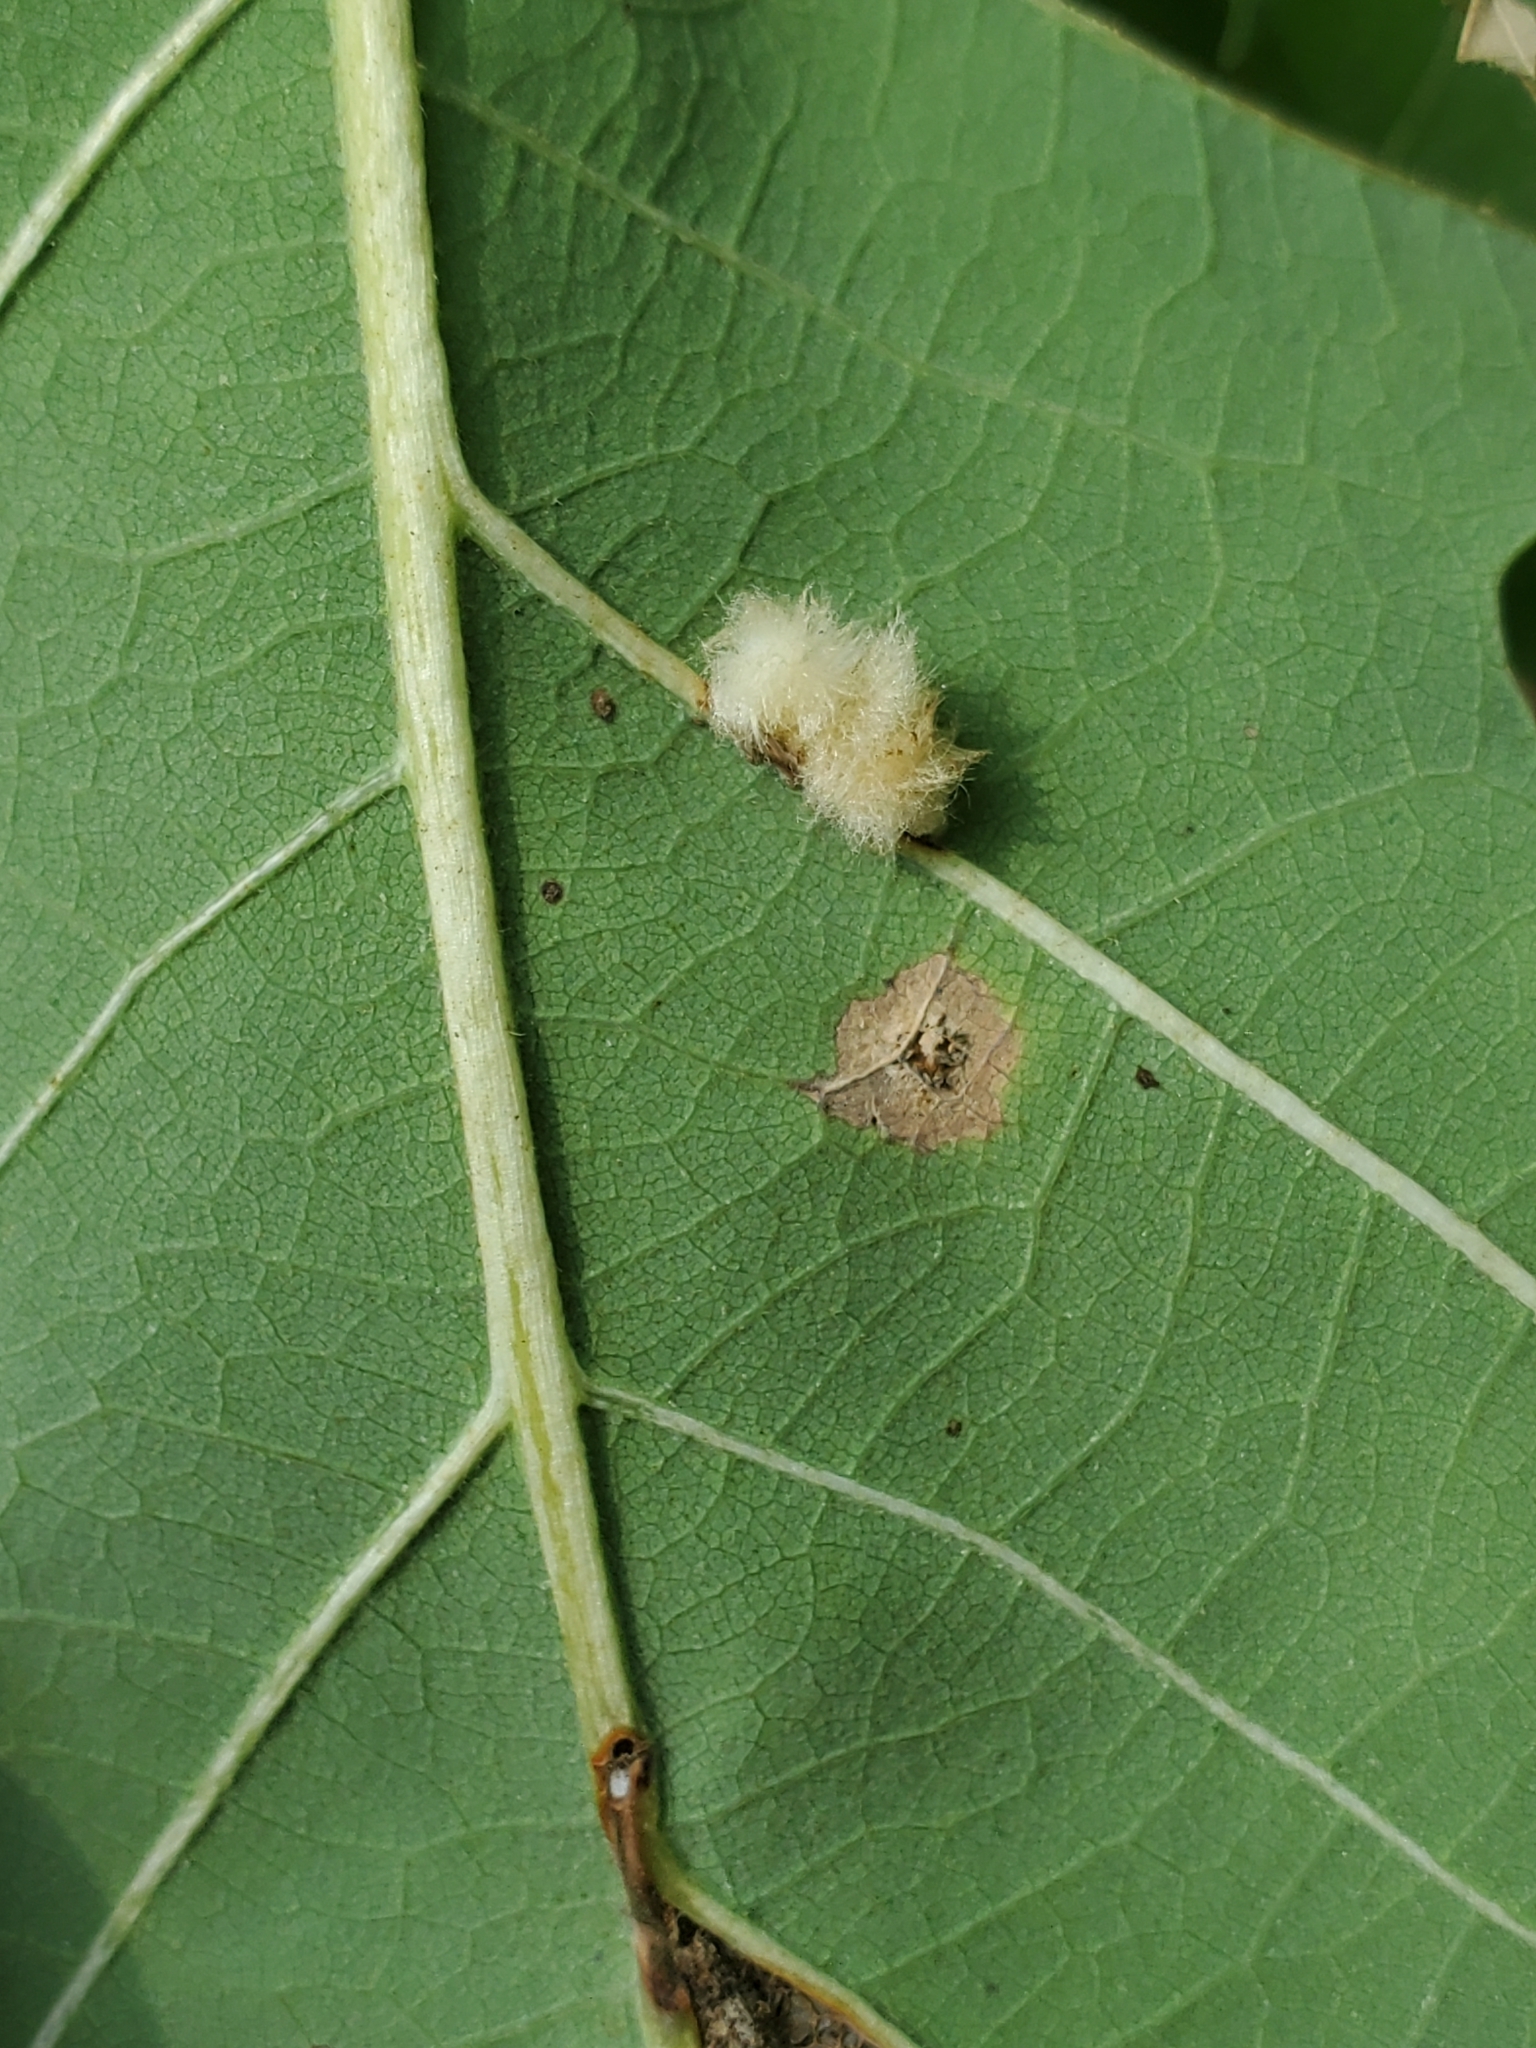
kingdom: Animalia
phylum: Arthropoda
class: Insecta
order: Hymenoptera
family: Cynipidae
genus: Andricus
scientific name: Andricus Druon ignotum
